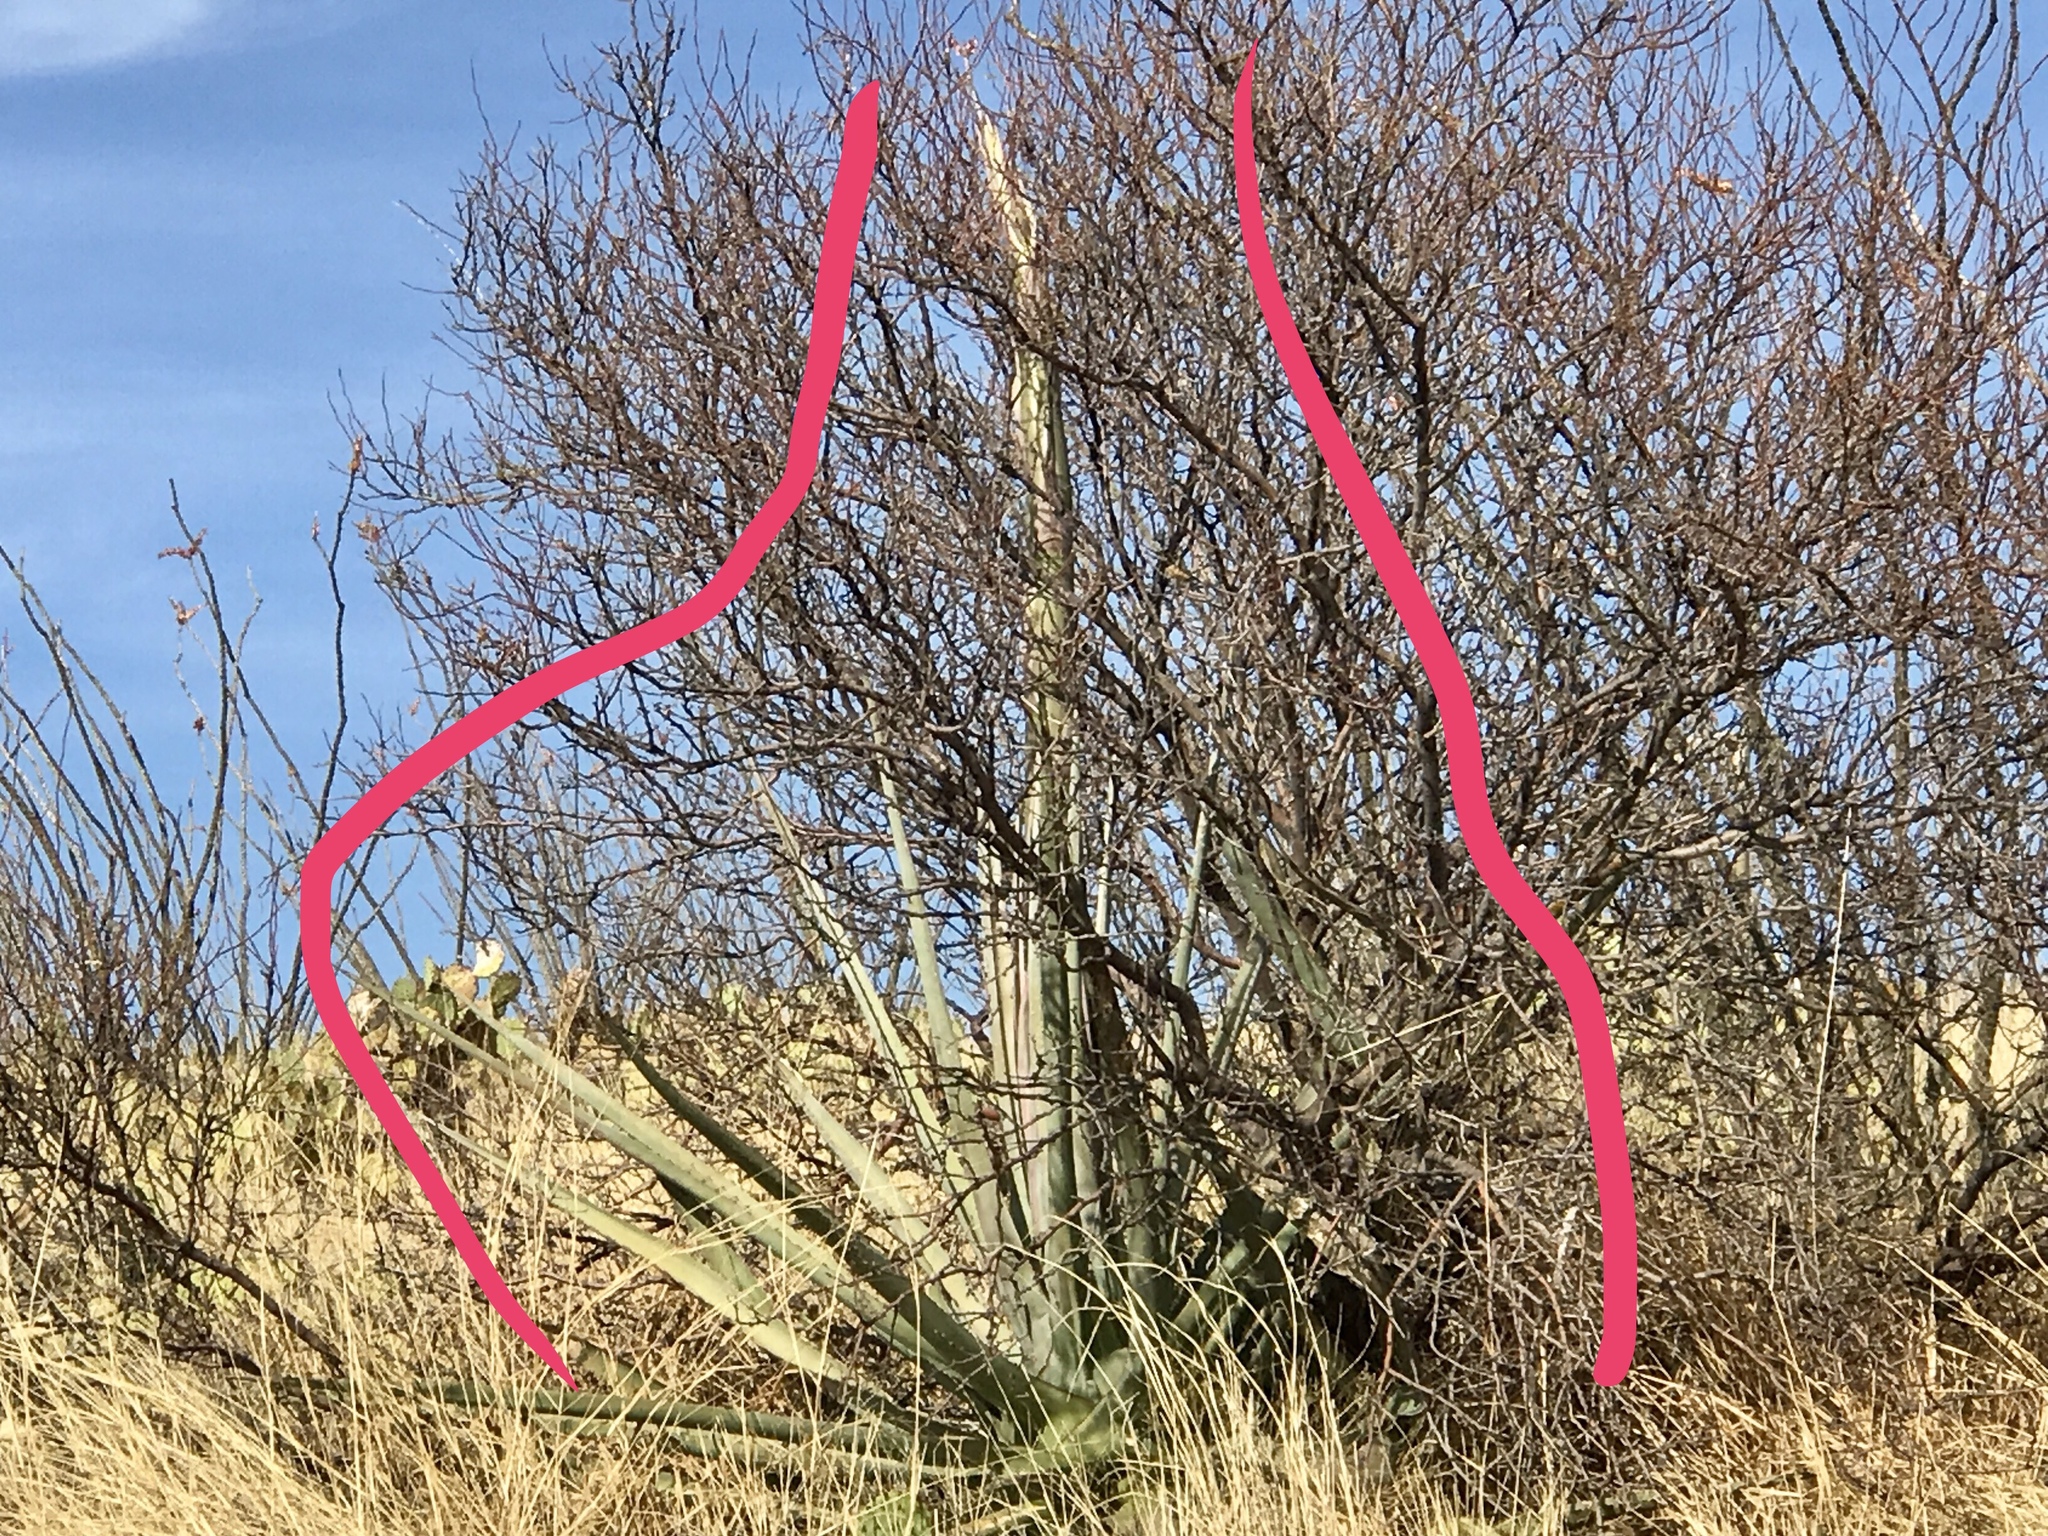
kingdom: Plantae
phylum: Tracheophyta
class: Liliopsida
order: Asparagales
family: Asparagaceae
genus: Agave
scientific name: Agave palmeri
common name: Palmer agave
